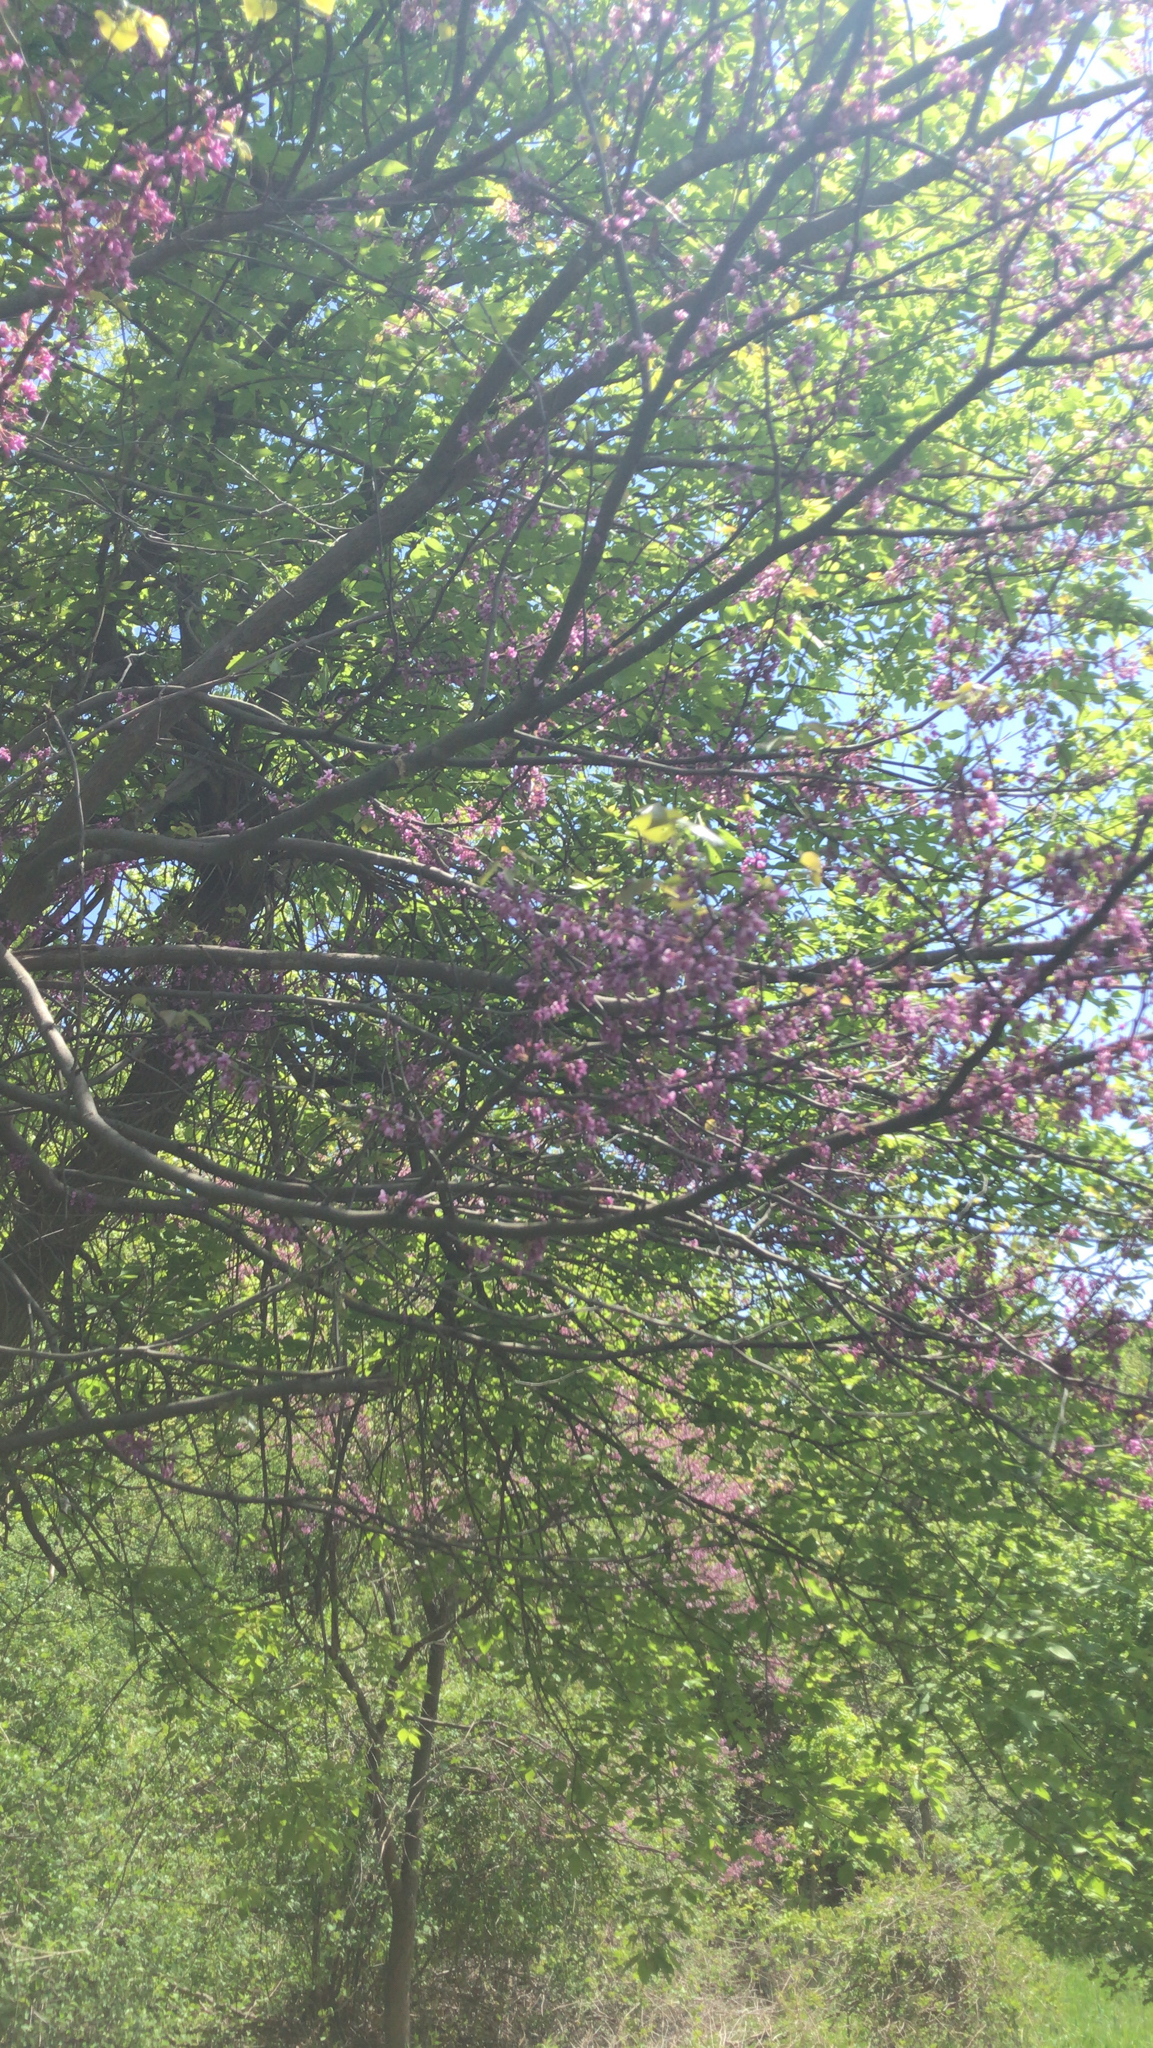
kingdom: Plantae
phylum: Tracheophyta
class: Magnoliopsida
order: Fabales
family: Fabaceae
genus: Cercis
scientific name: Cercis canadensis
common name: Eastern redbud
